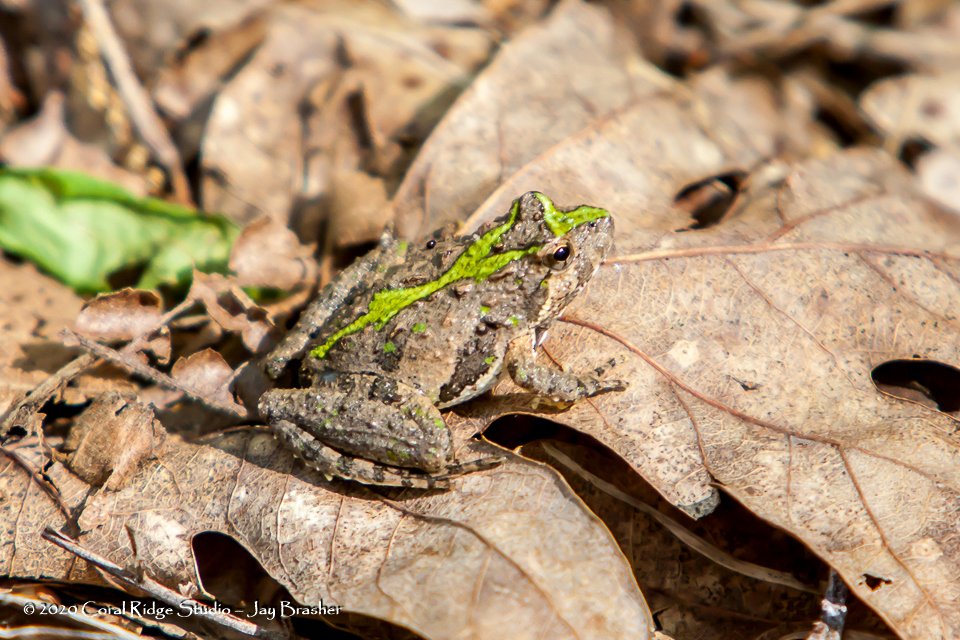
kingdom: Animalia
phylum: Chordata
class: Amphibia
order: Anura
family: Hylidae
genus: Acris
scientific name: Acris crepitans
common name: Northern cricket frog
